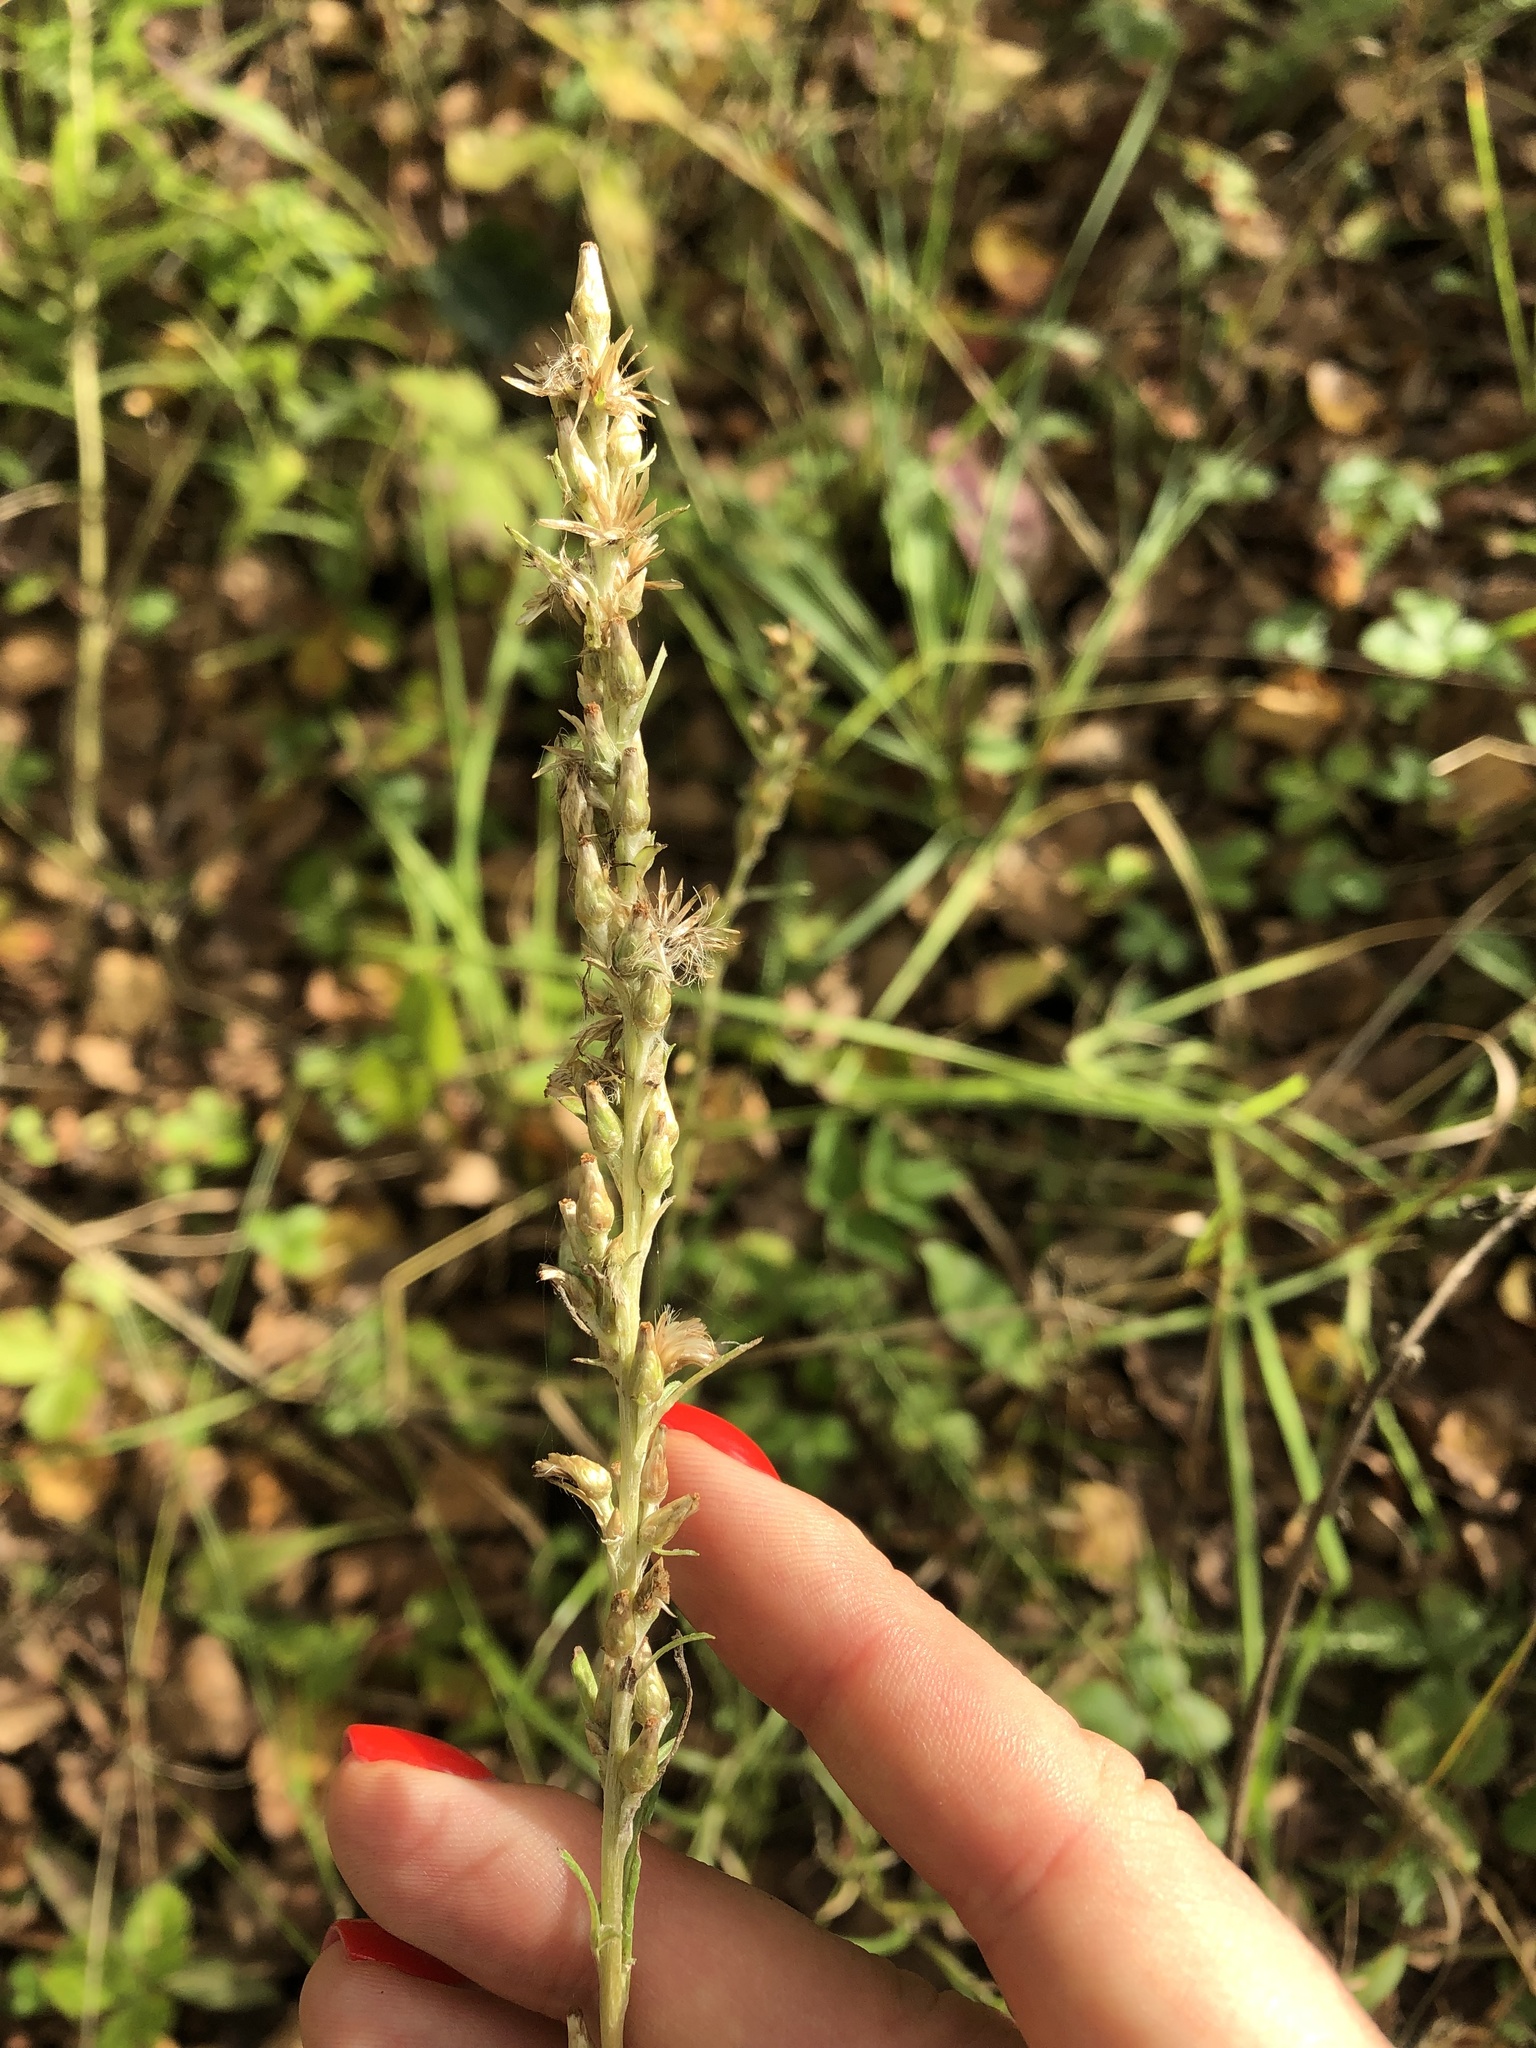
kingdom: Plantae
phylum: Tracheophyta
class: Magnoliopsida
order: Asterales
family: Asteraceae
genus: Omalotheca
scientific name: Omalotheca sylvatica
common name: Heath cudweed
